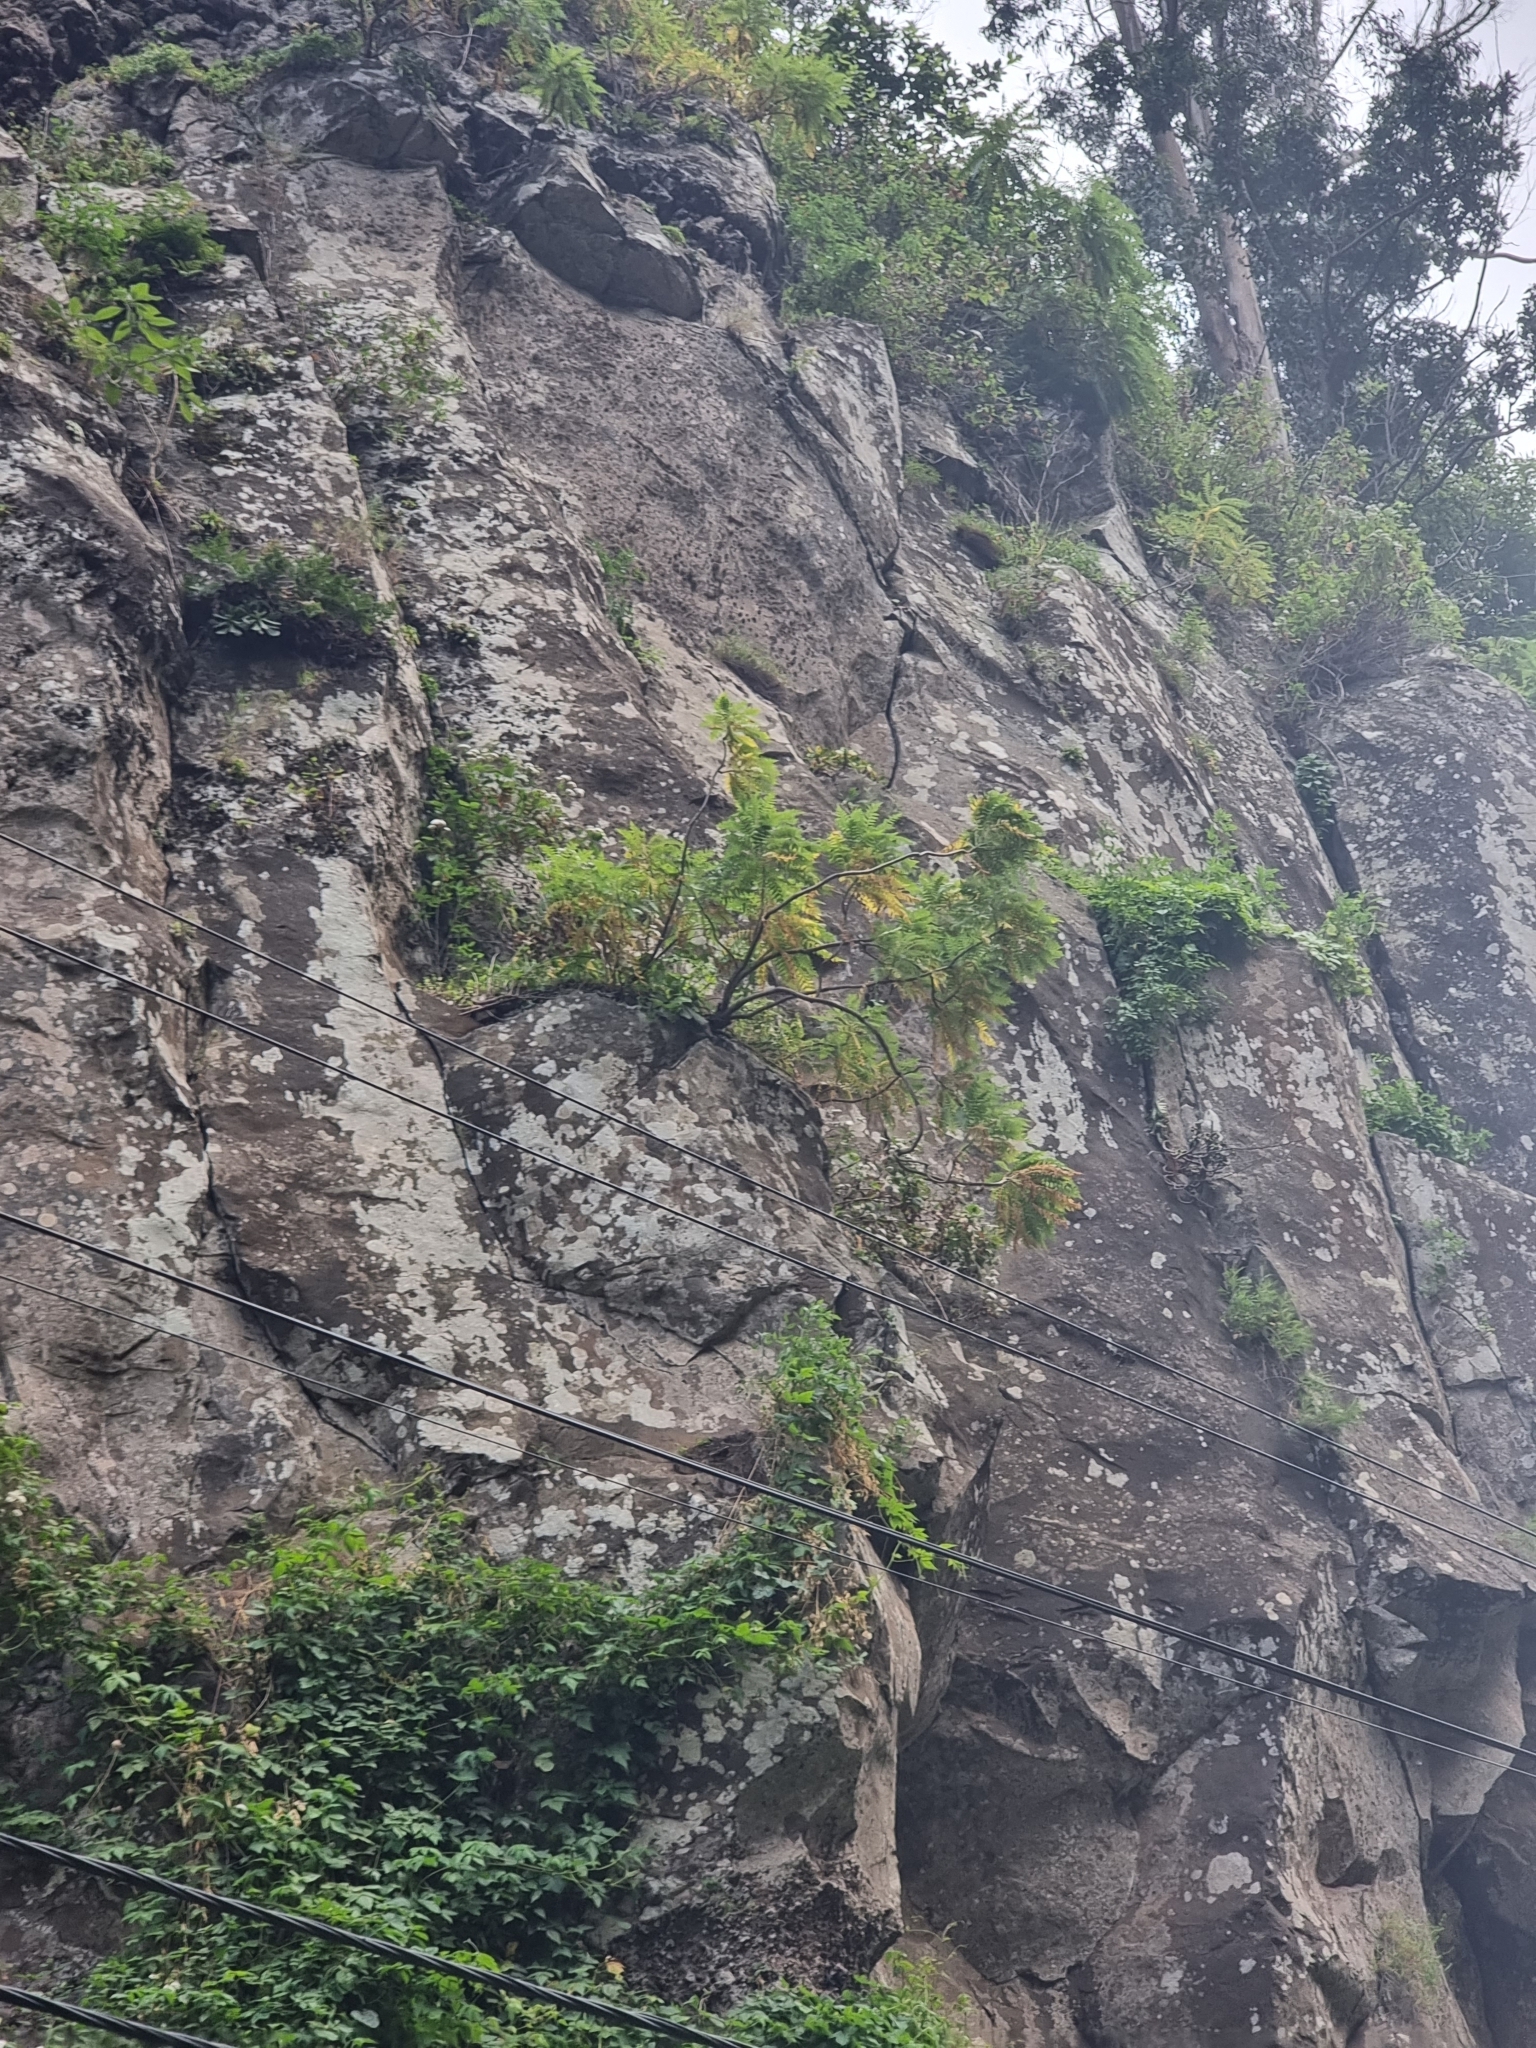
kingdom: Plantae
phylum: Tracheophyta
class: Magnoliopsida
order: Asterales
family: Asteraceae
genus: Sonchus
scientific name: Sonchus pinnatus
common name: Wing-leaved sow-thistle
